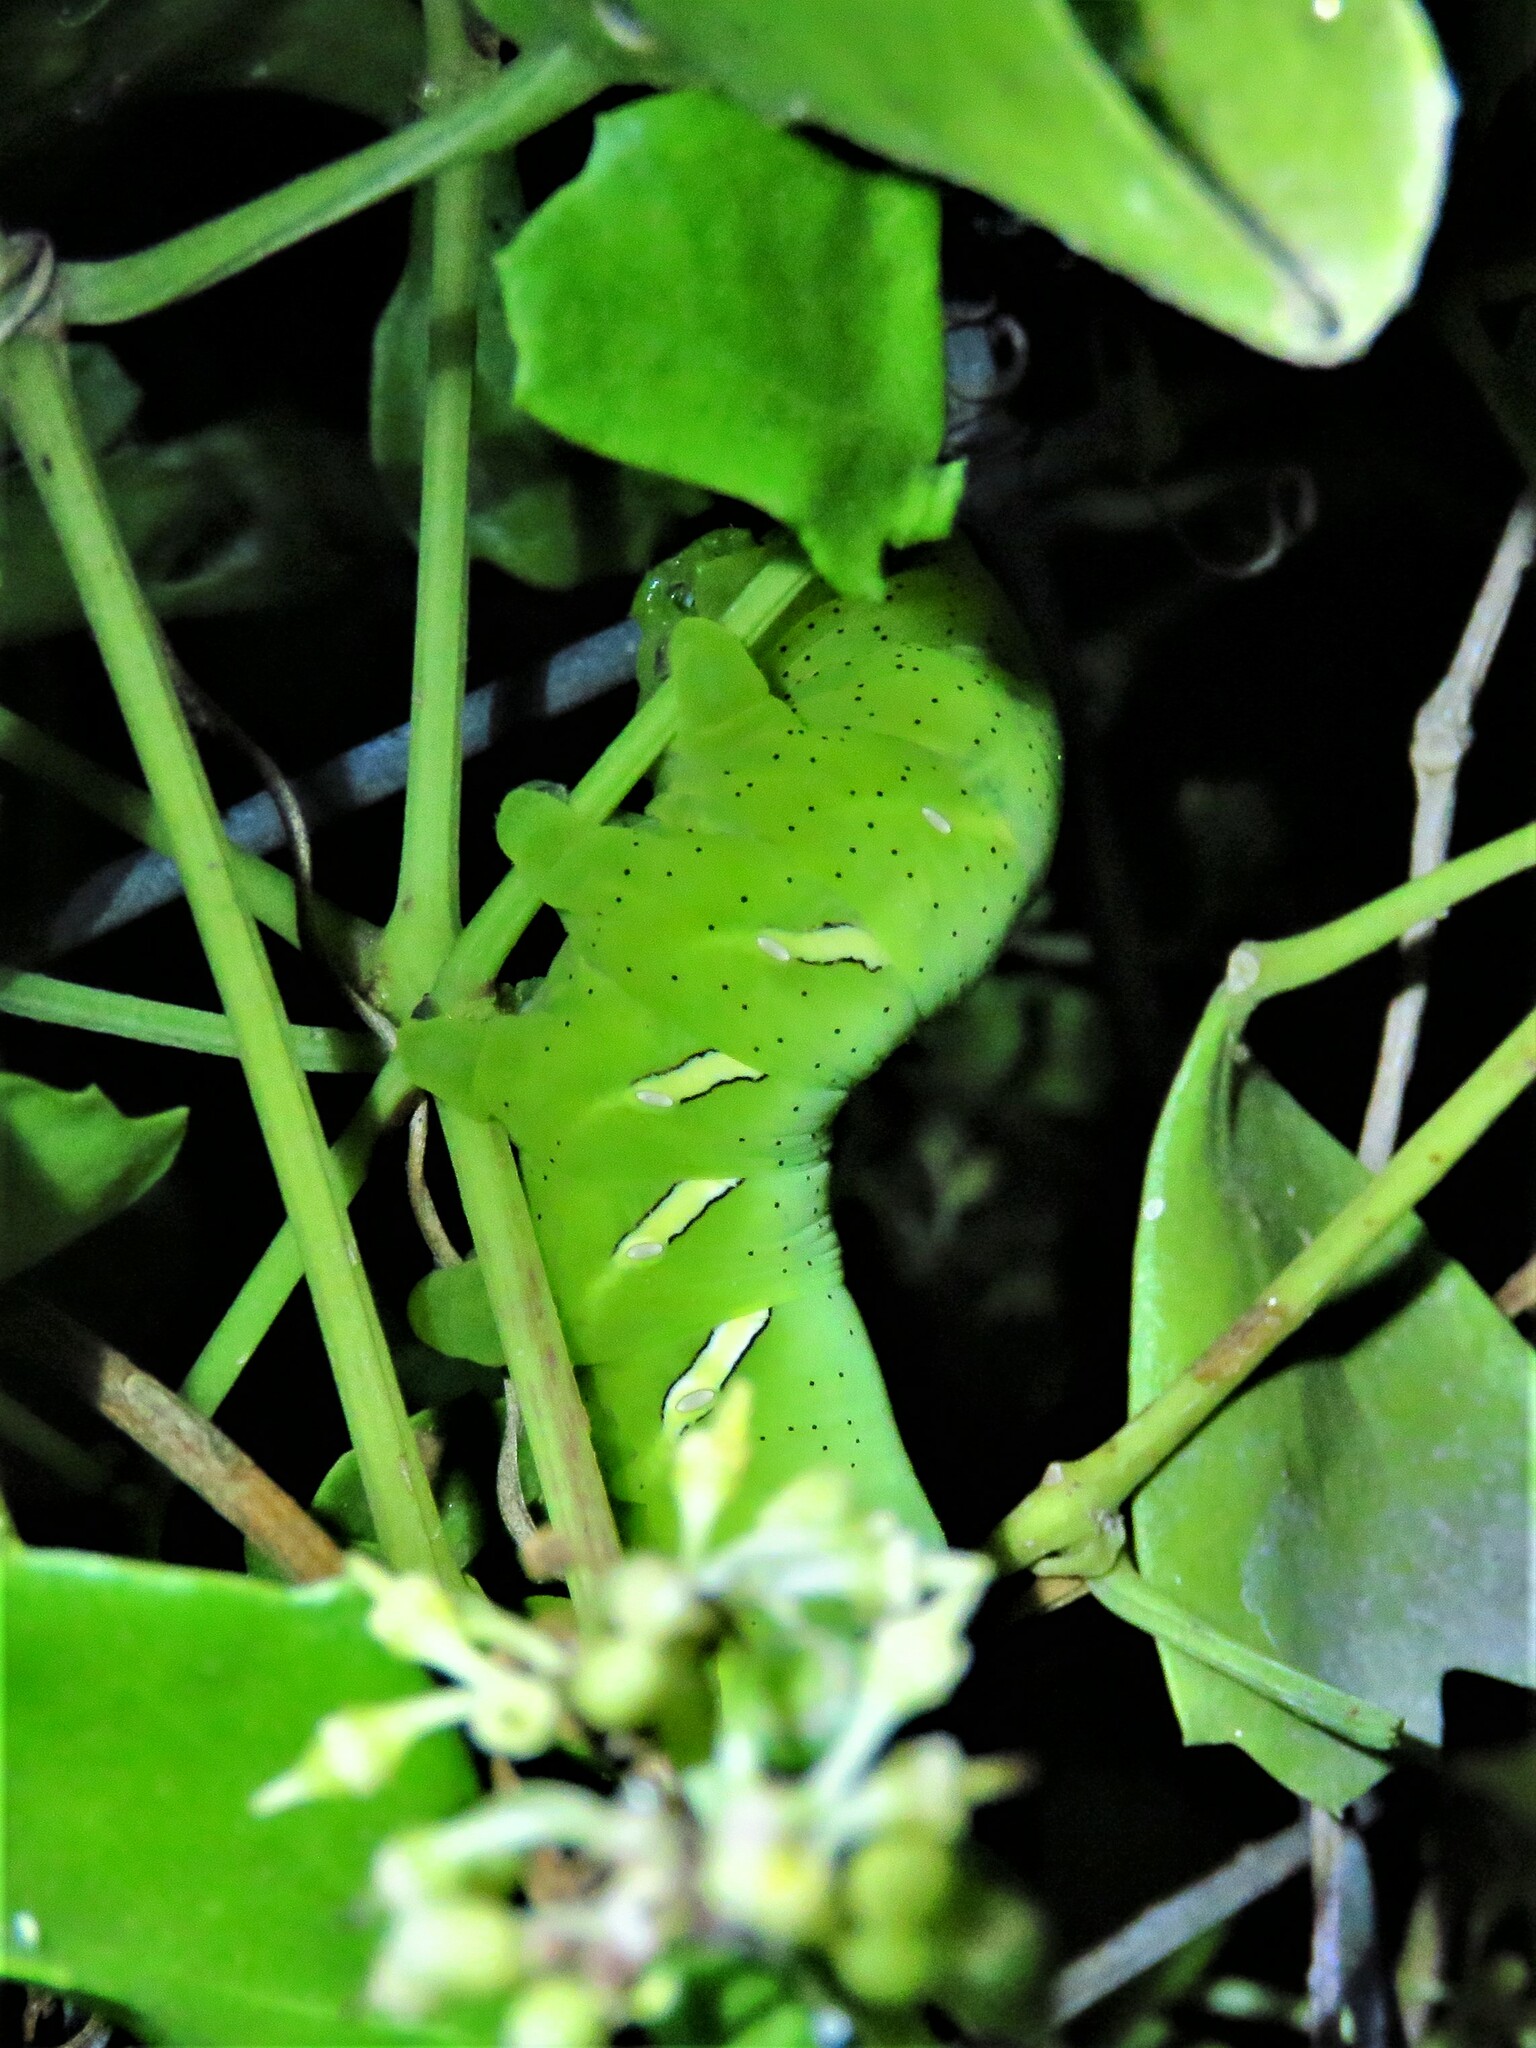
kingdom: Animalia
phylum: Arthropoda
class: Insecta
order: Lepidoptera
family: Sphingidae
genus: Eumorpha
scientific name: Eumorpha vitis
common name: Vine sphinx
